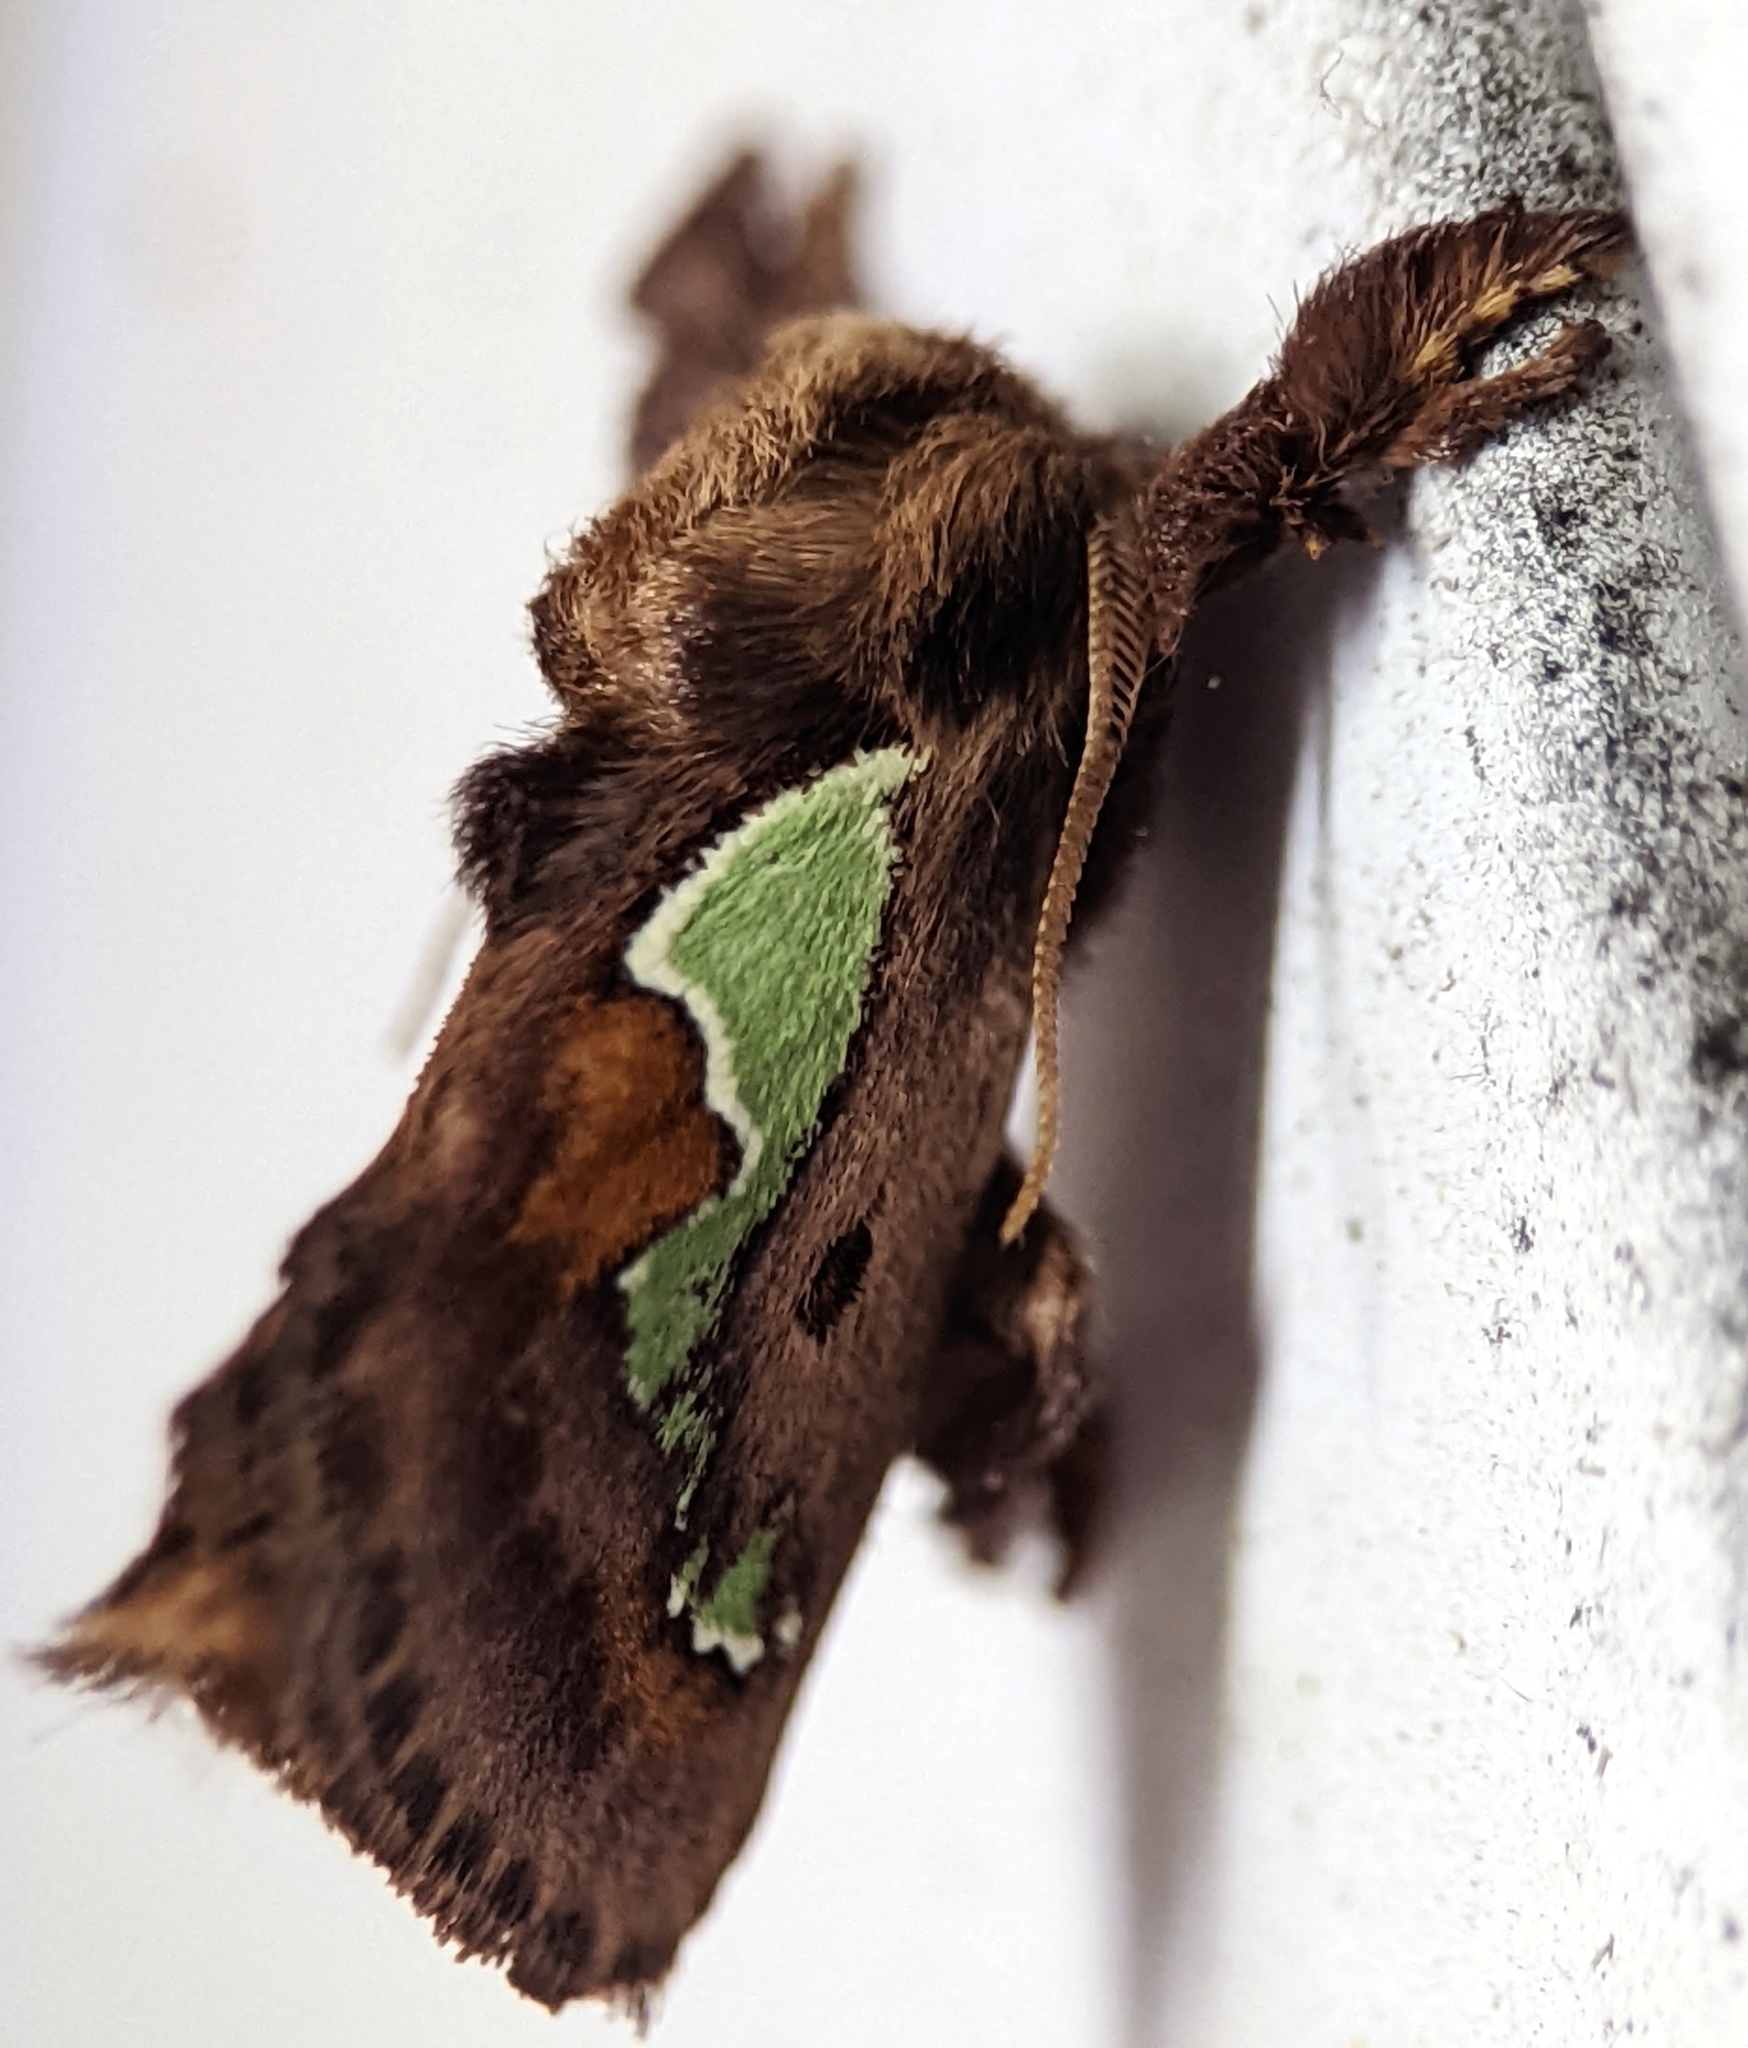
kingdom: Animalia
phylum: Arthropoda
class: Insecta
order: Lepidoptera
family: Limacodidae
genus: Euclea
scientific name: Euclea delphinii
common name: Spiny oak-slug moth
